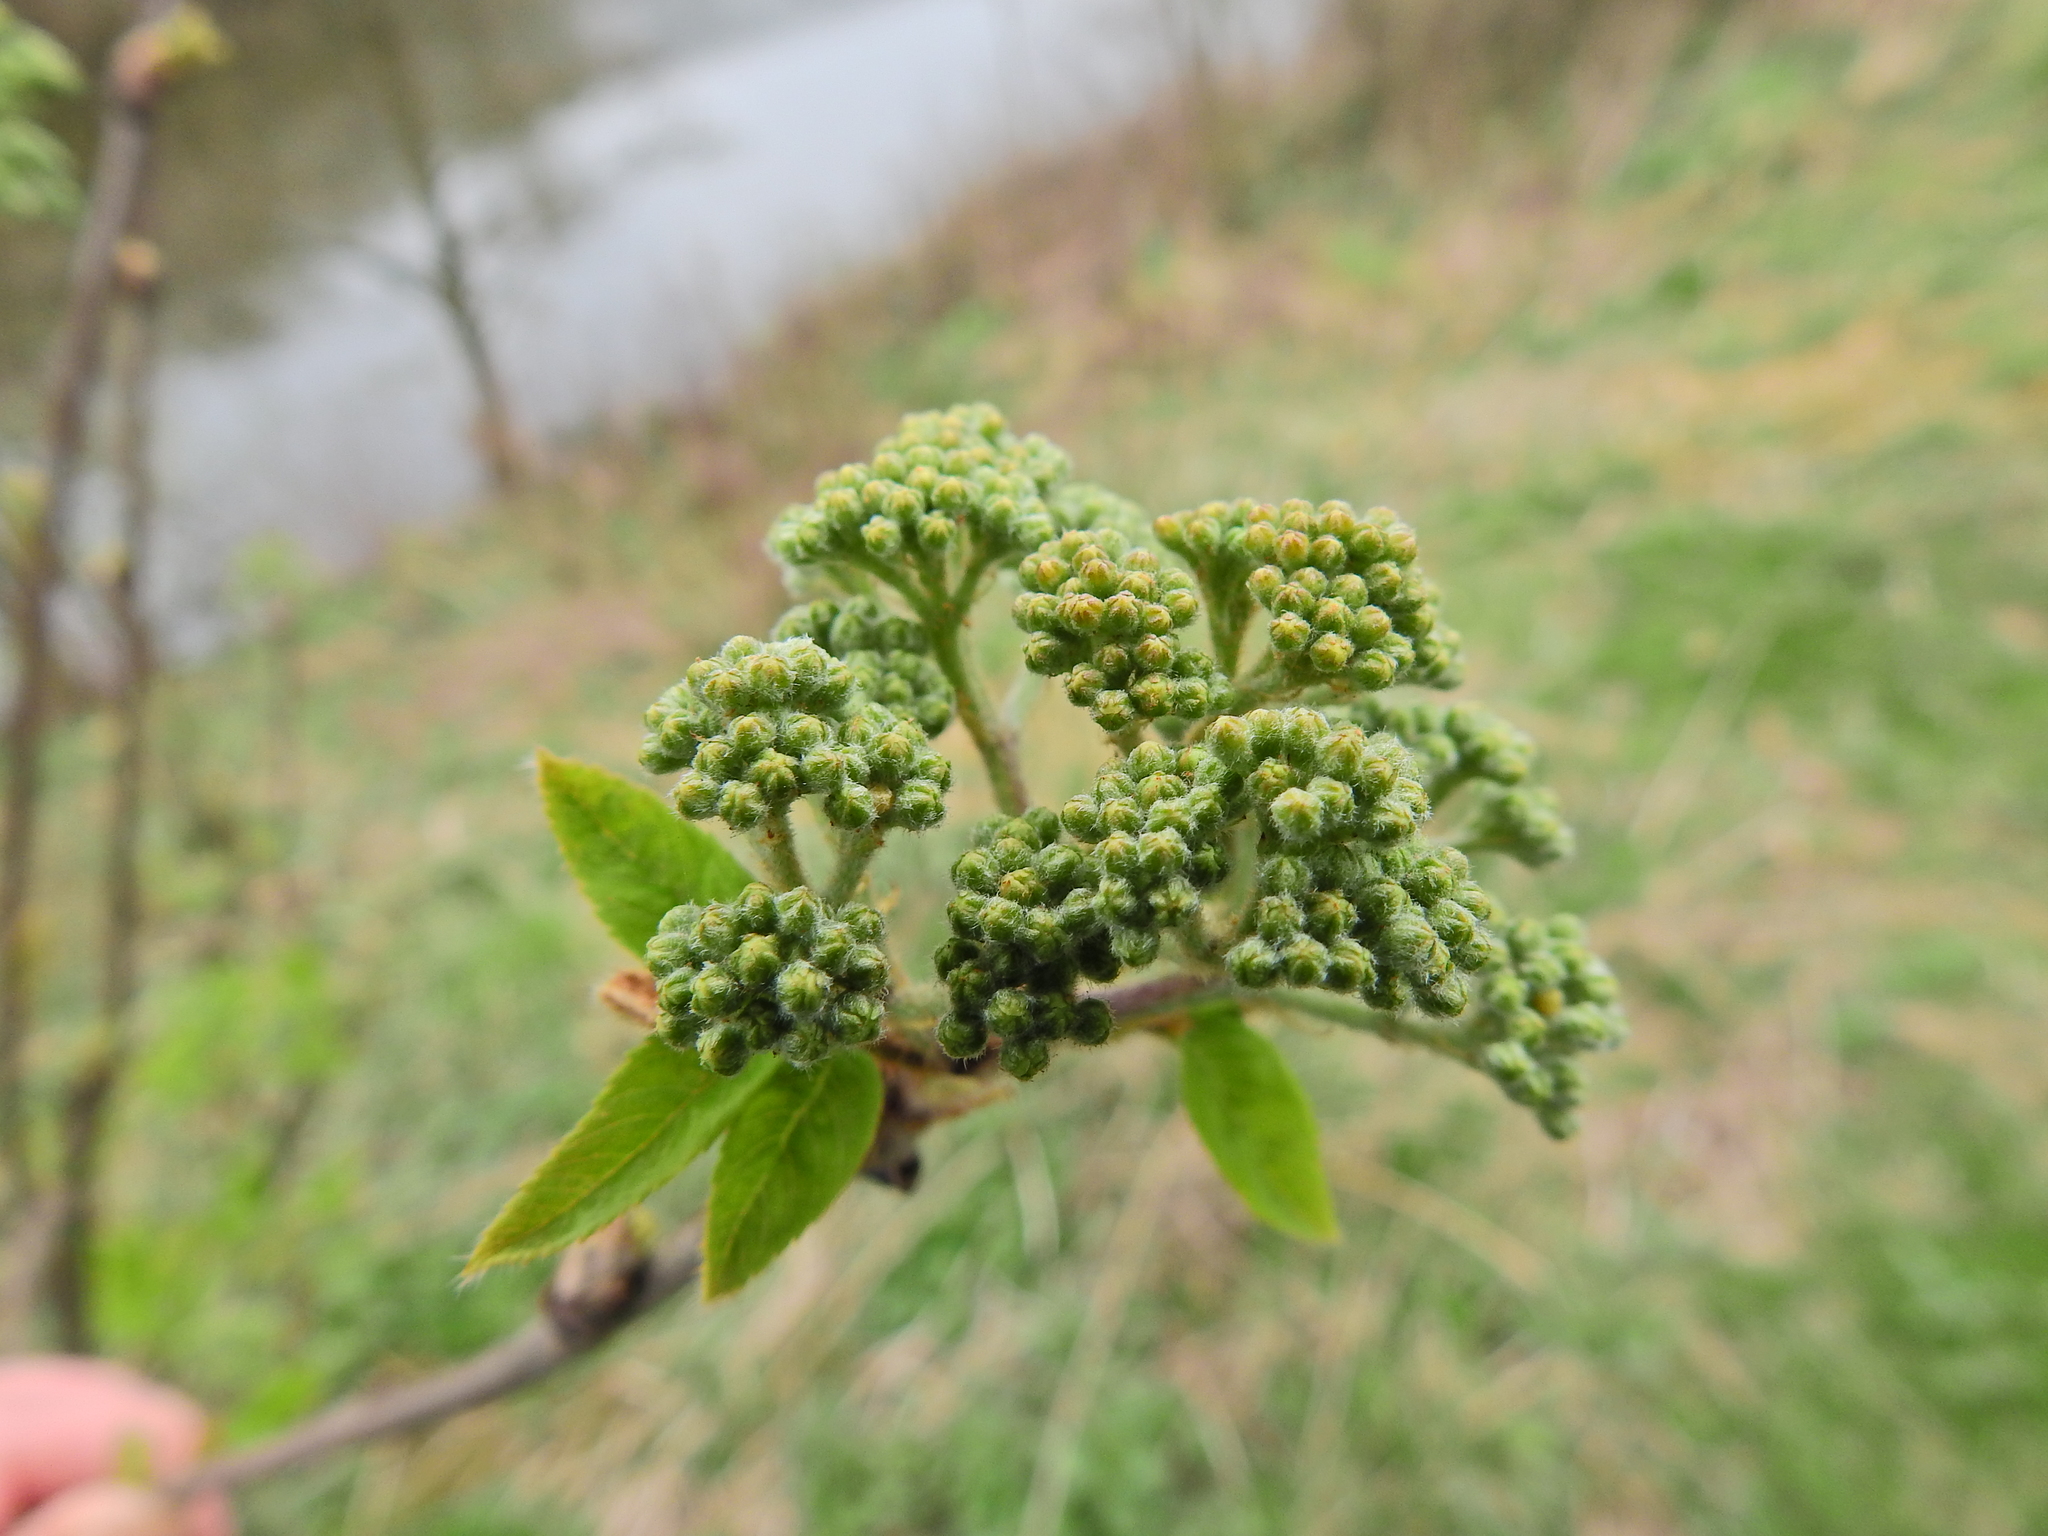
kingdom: Plantae
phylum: Tracheophyta
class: Magnoliopsida
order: Rosales
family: Rosaceae
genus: Sorbus
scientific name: Sorbus aucuparia
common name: Rowan
